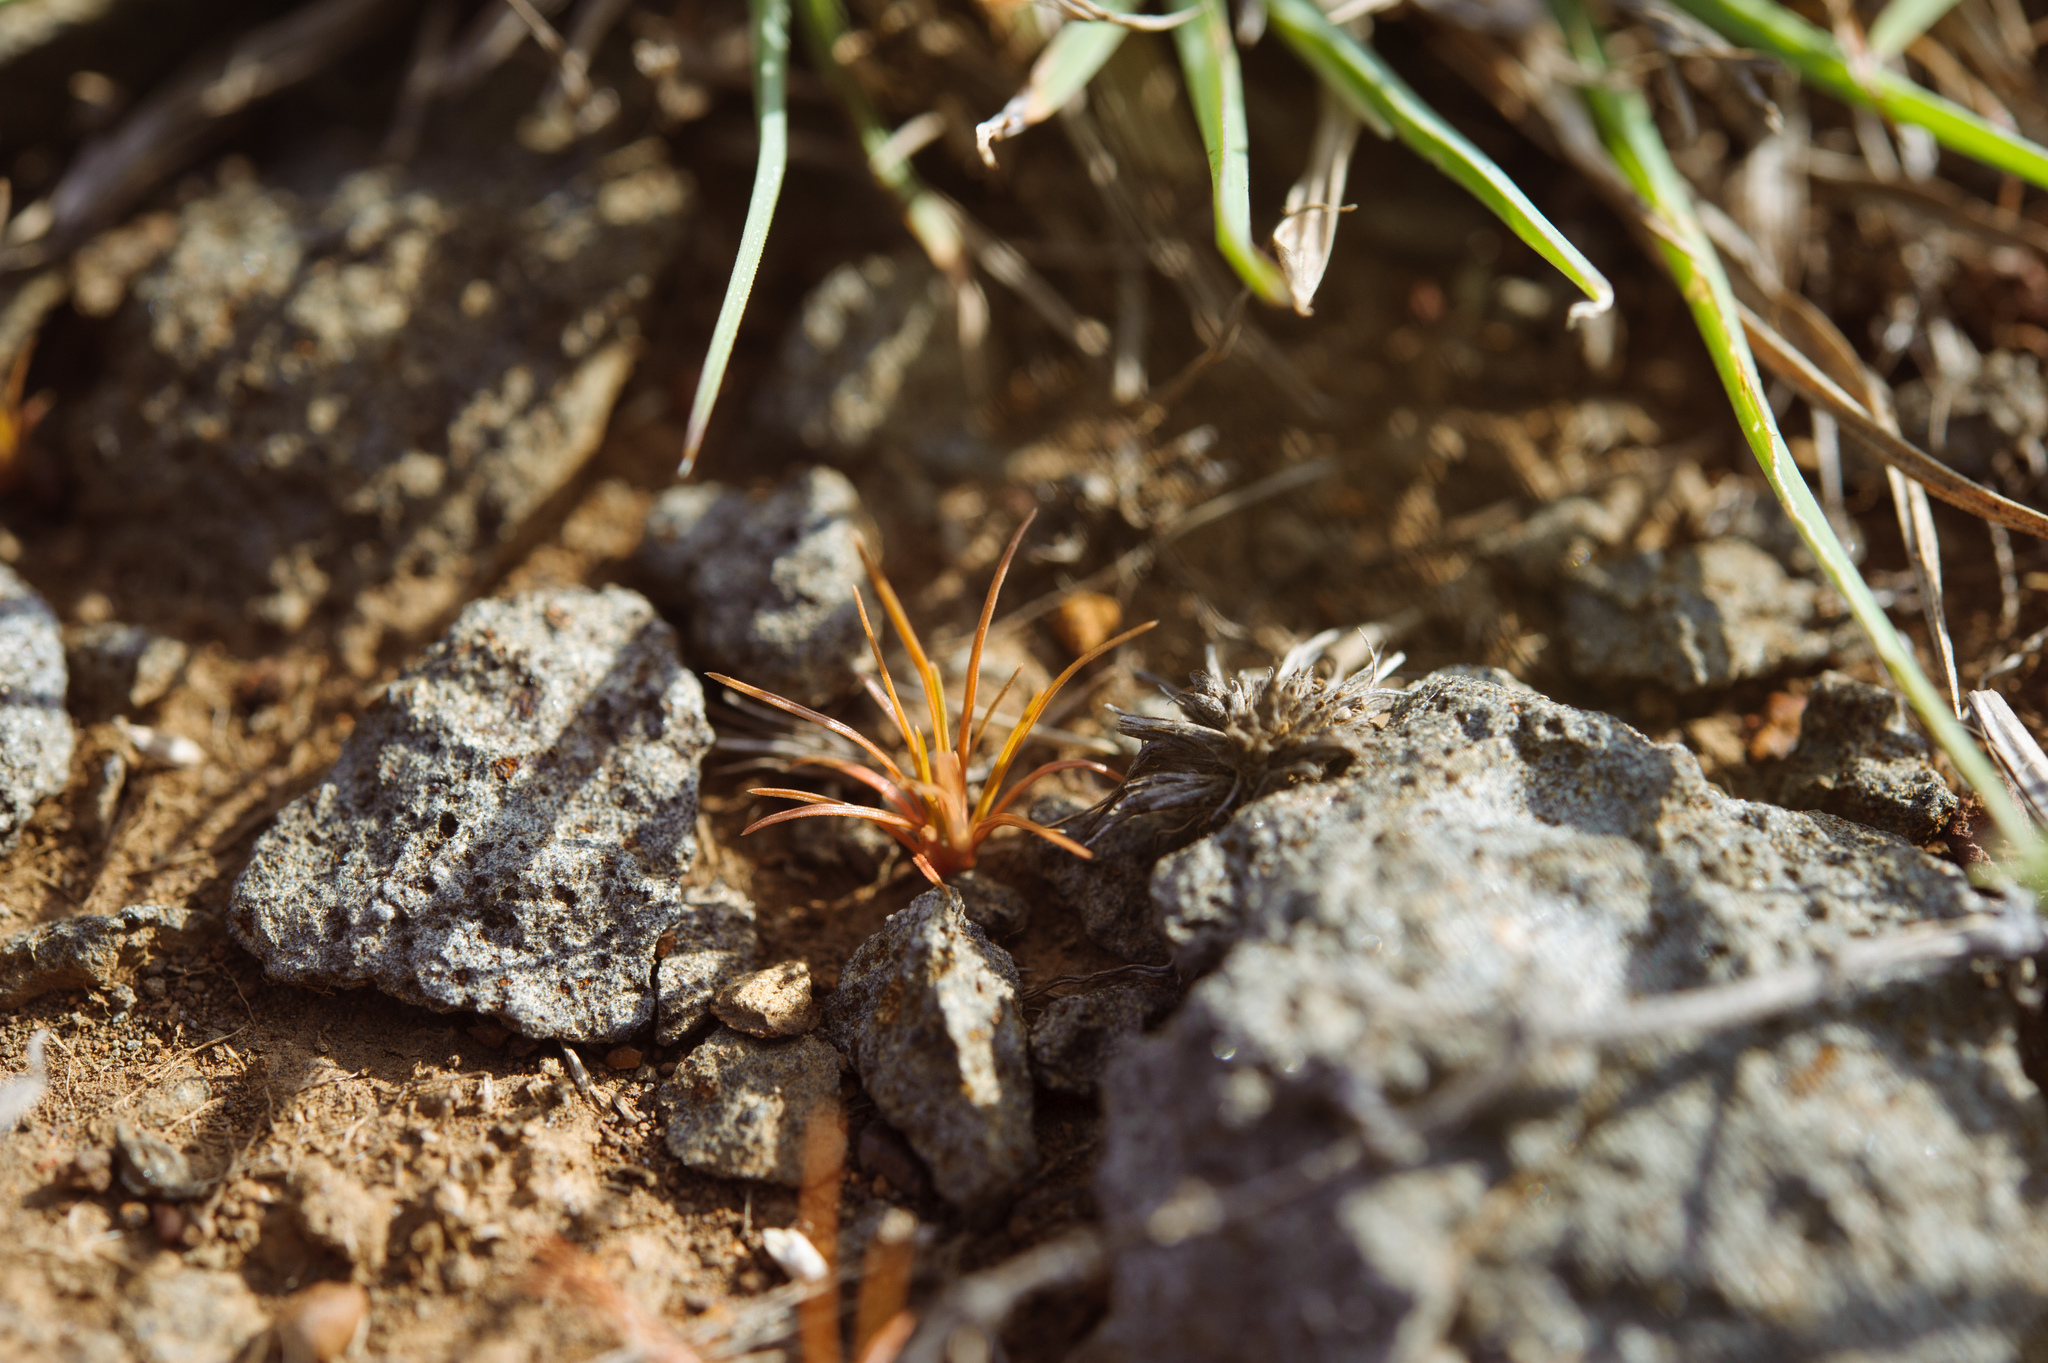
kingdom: Plantae
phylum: Tracheophyta
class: Liliopsida
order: Poales
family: Cyperaceae
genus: Bulbostylis
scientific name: Bulbostylis barbata
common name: Watergrass
